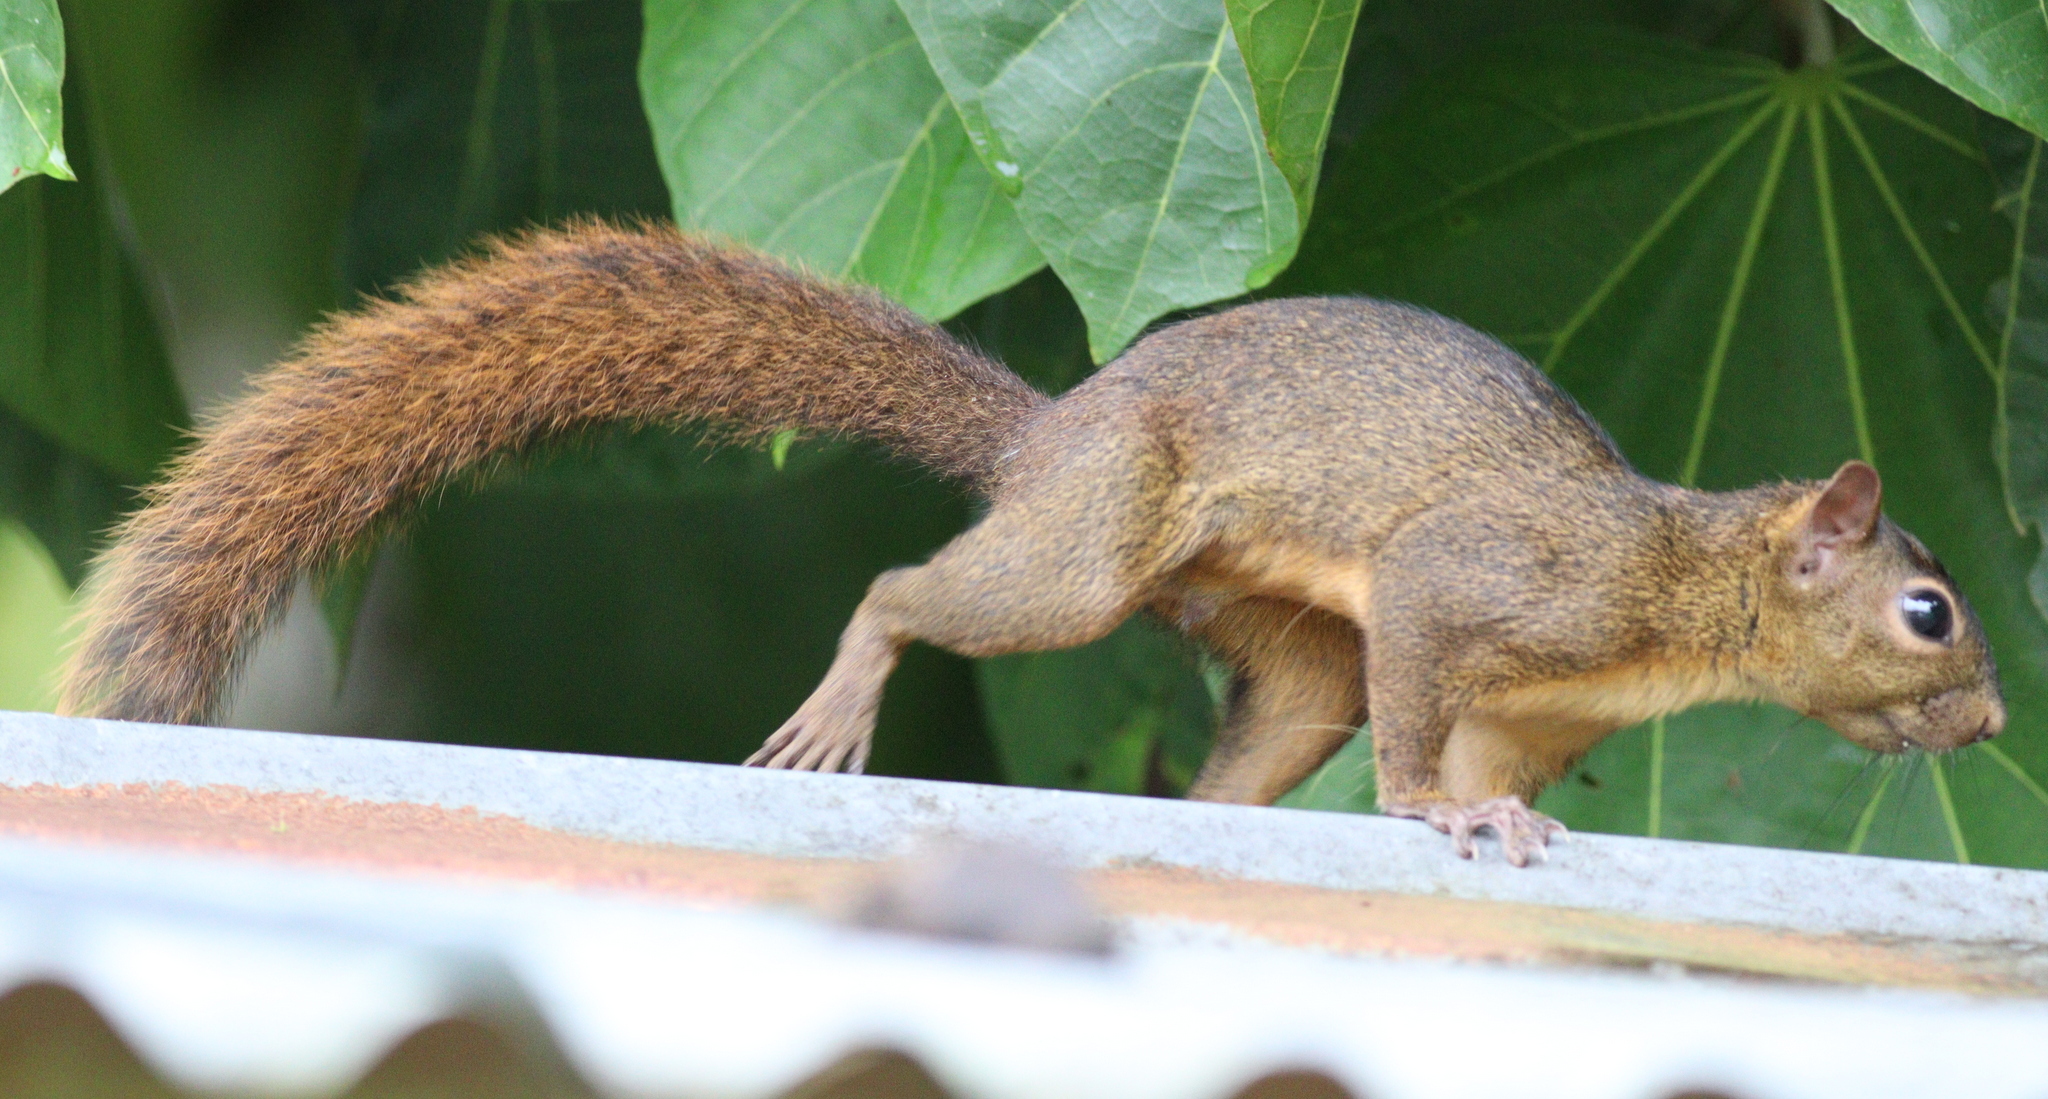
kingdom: Animalia
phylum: Chordata
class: Mammalia
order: Rodentia
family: Sciuridae
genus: Sciurus
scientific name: Sciurus granatensis
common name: Red-tailed squirrel
